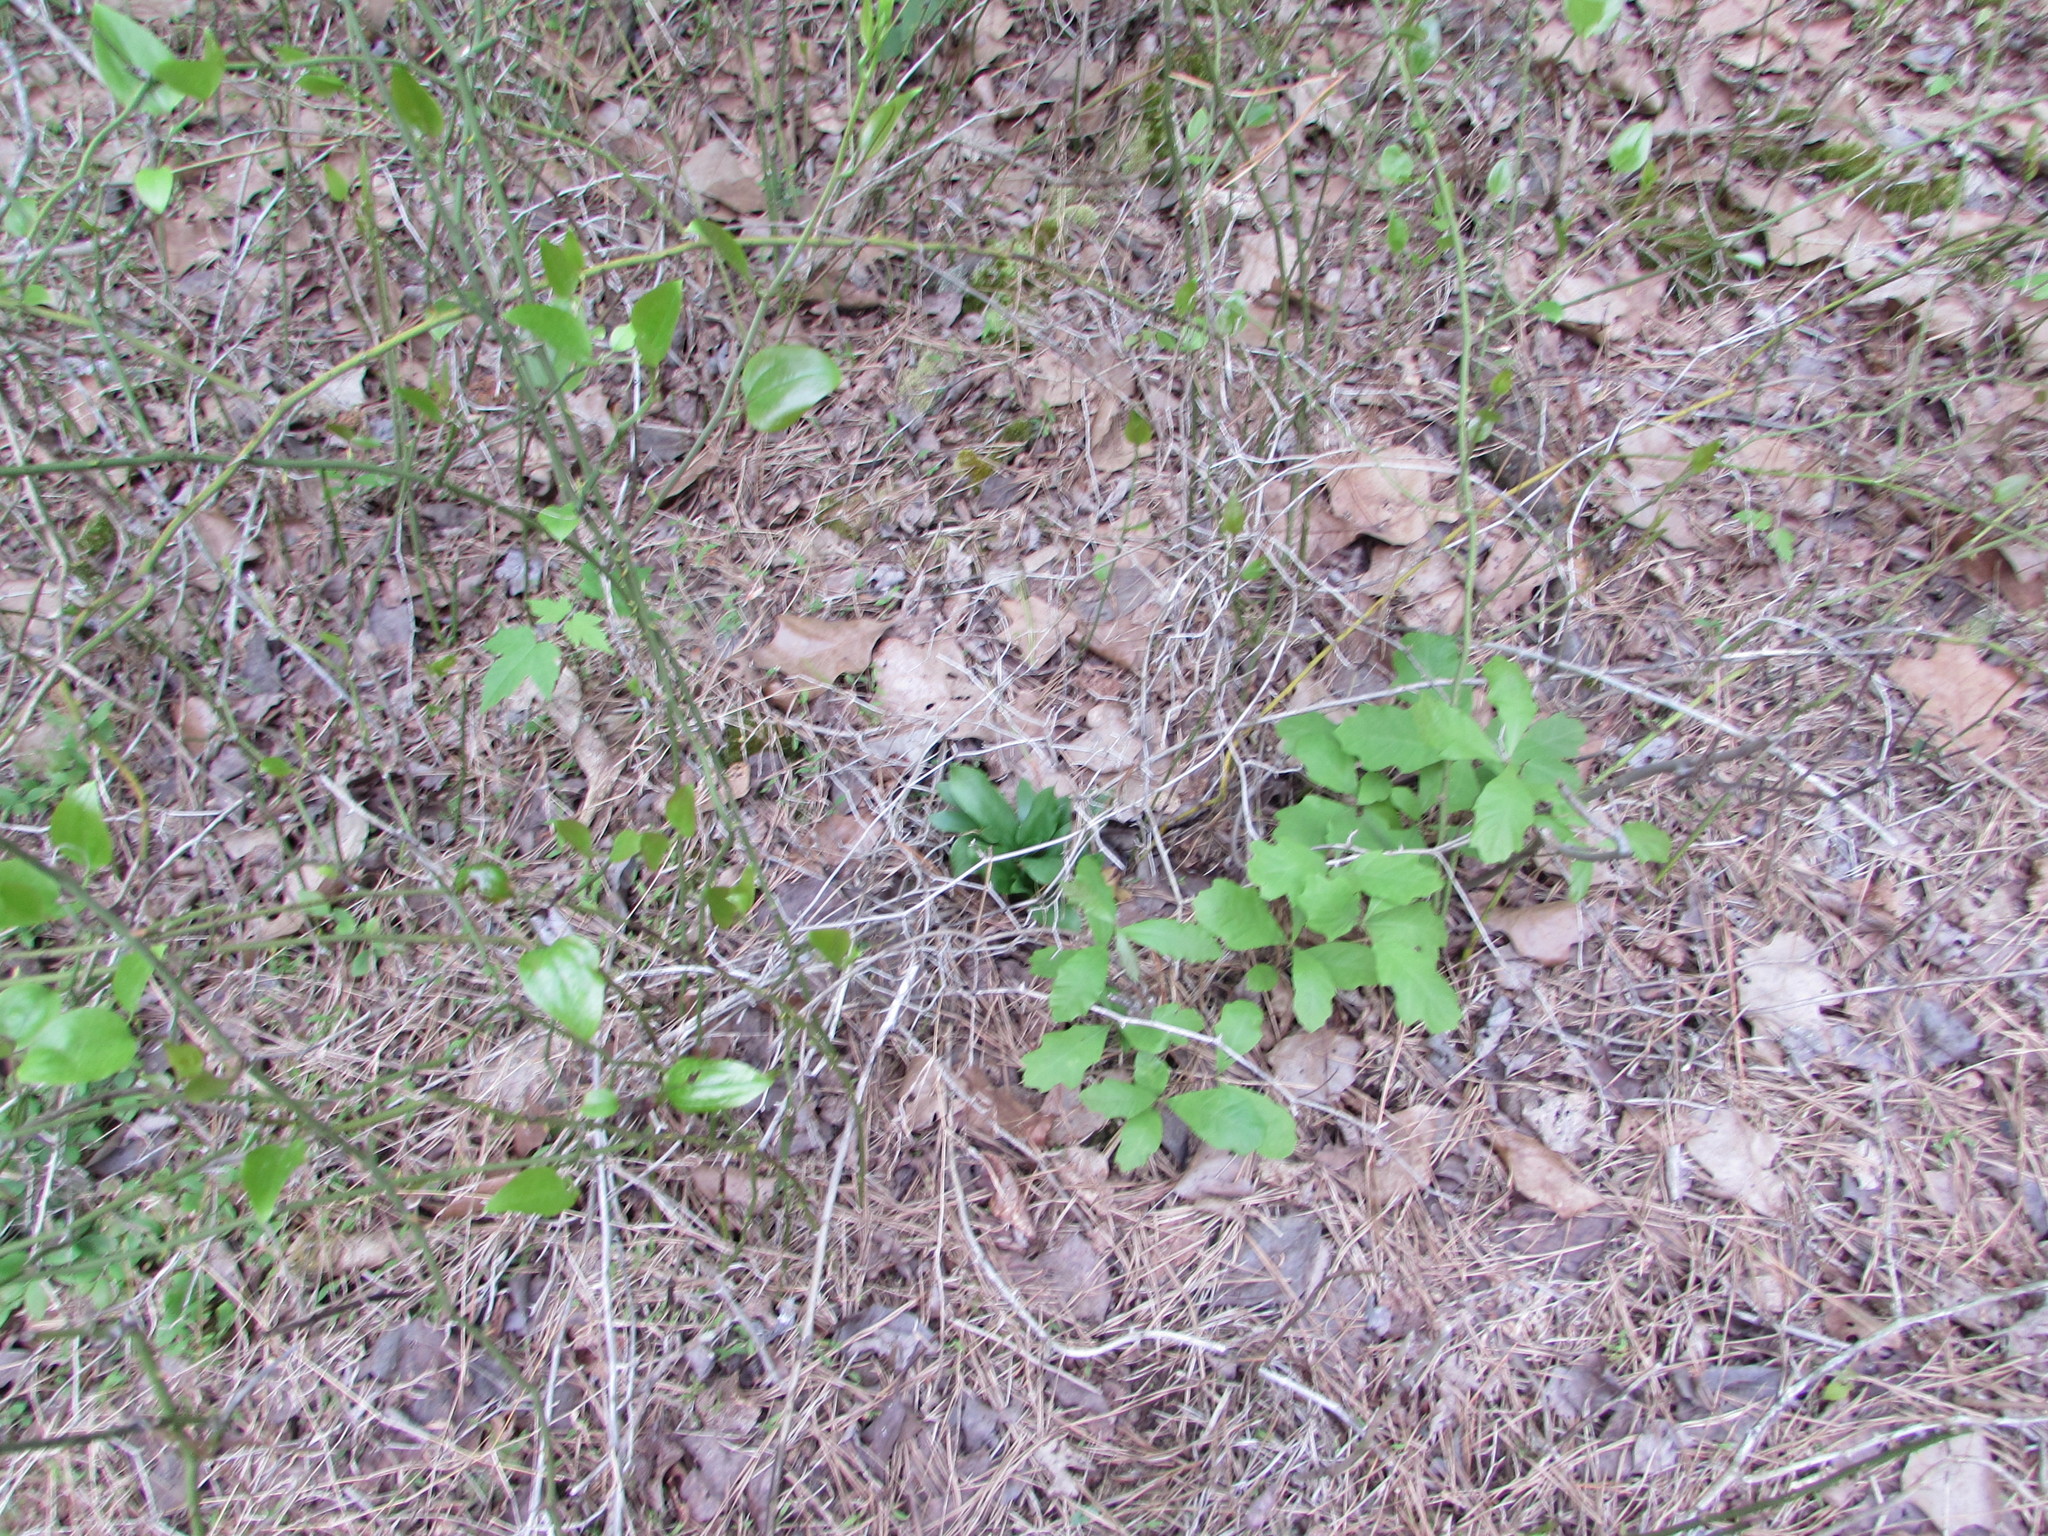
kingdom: Plantae
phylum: Tracheophyta
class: Liliopsida
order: Liliales
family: Melanthiaceae
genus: Chamaelirium
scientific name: Chamaelirium luteum
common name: Fairy-wand
